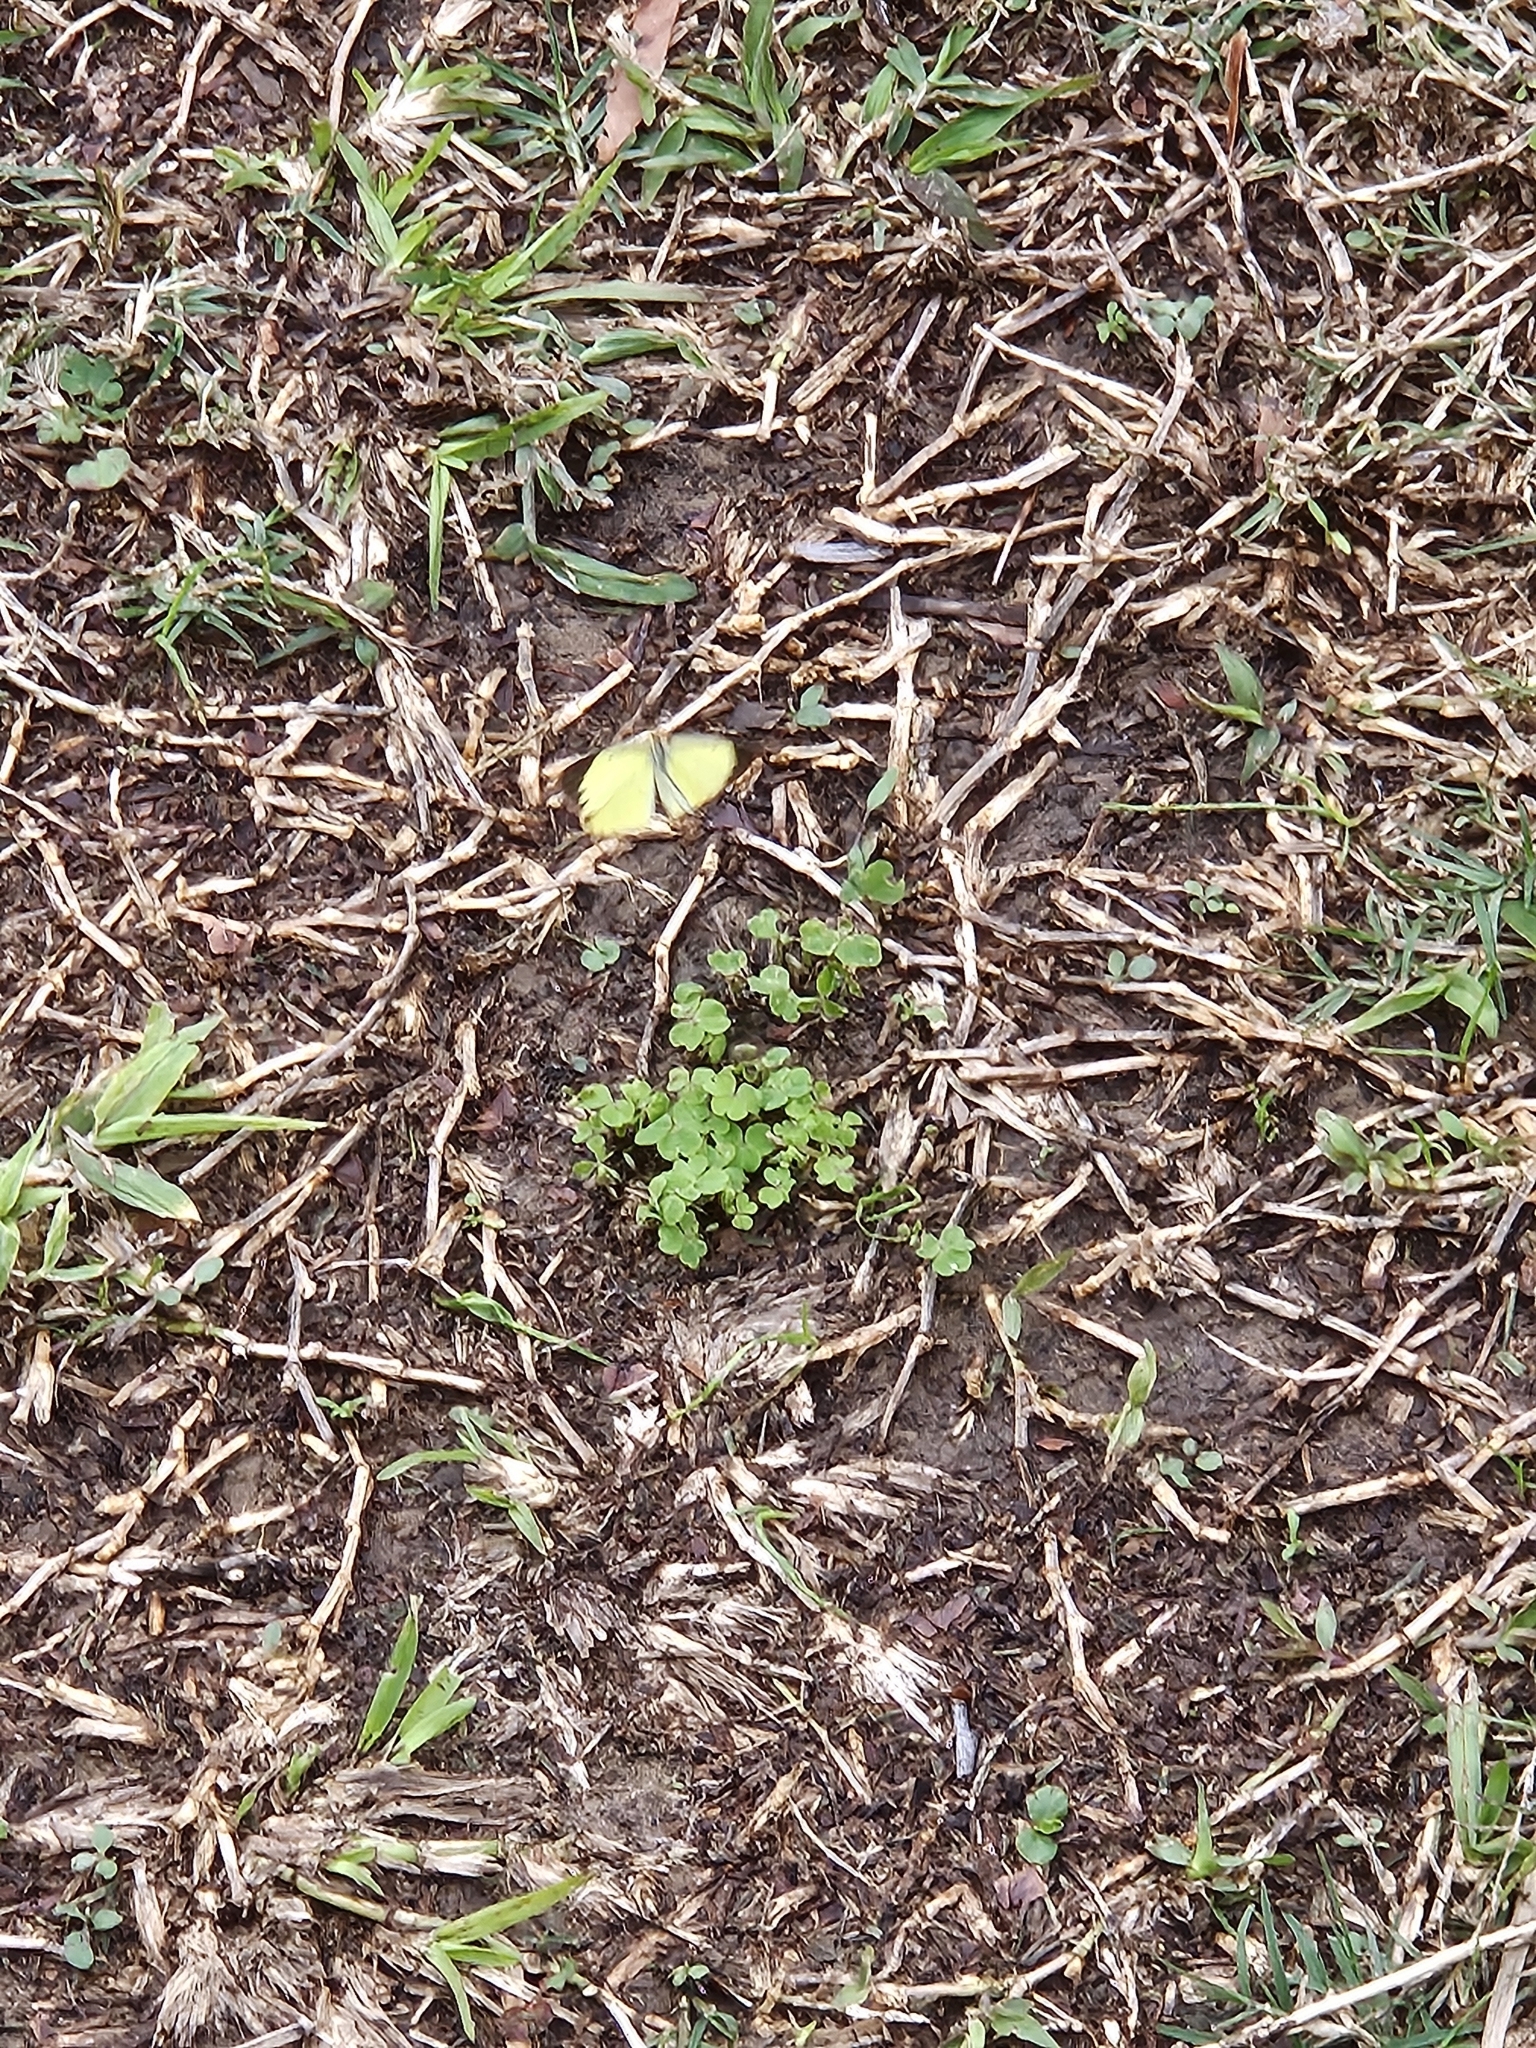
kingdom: Animalia
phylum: Arthropoda
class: Insecta
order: Lepidoptera
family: Pieridae
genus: Pyrisitia
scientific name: Pyrisitia lisa
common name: Little yellow
